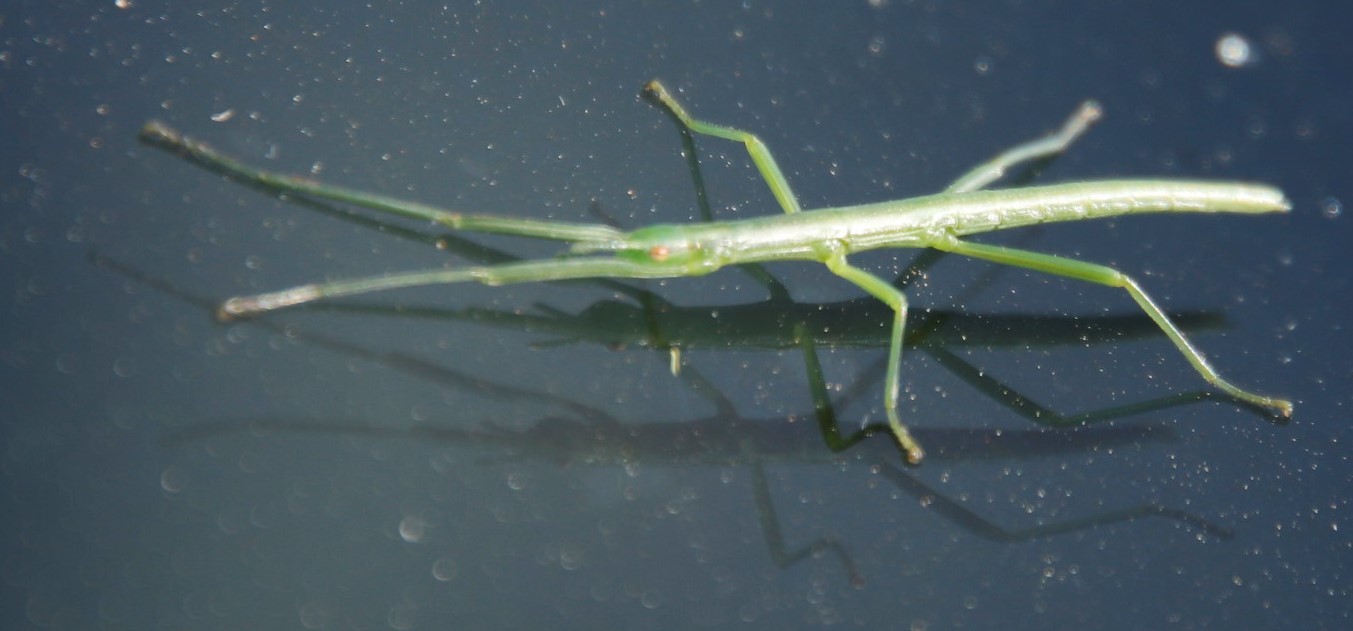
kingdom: Animalia
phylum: Arthropoda
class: Insecta
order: Phasmida
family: Bacillidae
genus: Macynia
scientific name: Macynia labiata
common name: Thunberg's stick insect
